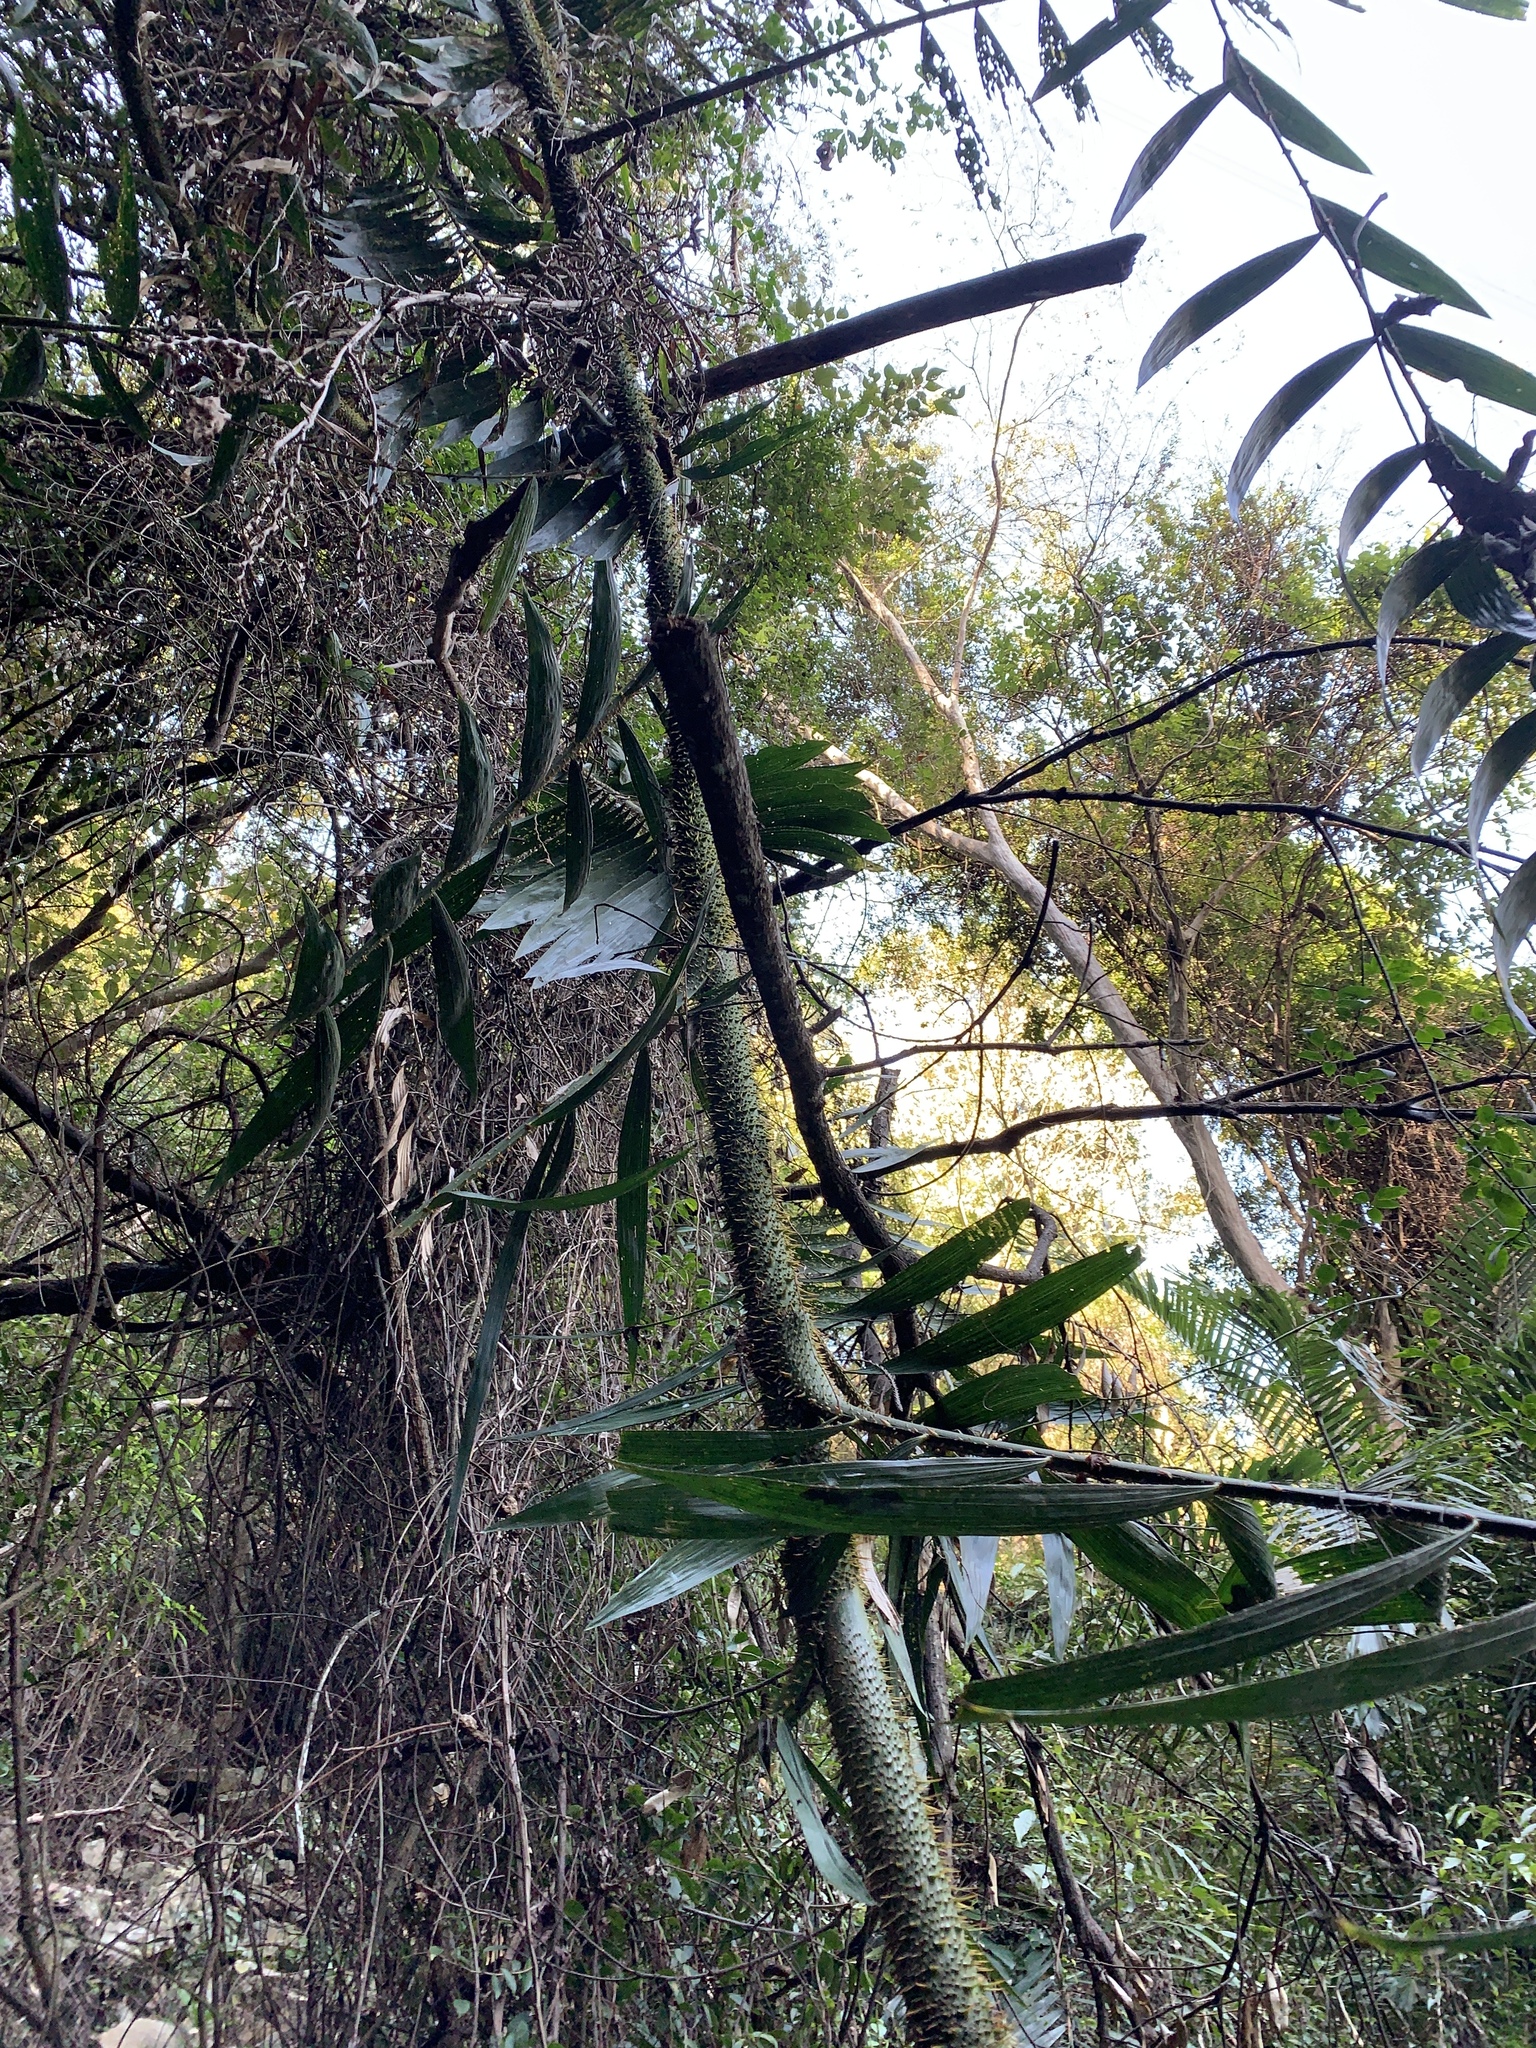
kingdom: Plantae
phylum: Tracheophyta
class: Liliopsida
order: Arecales
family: Arecaceae
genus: Calamus
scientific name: Calamus formosanus
